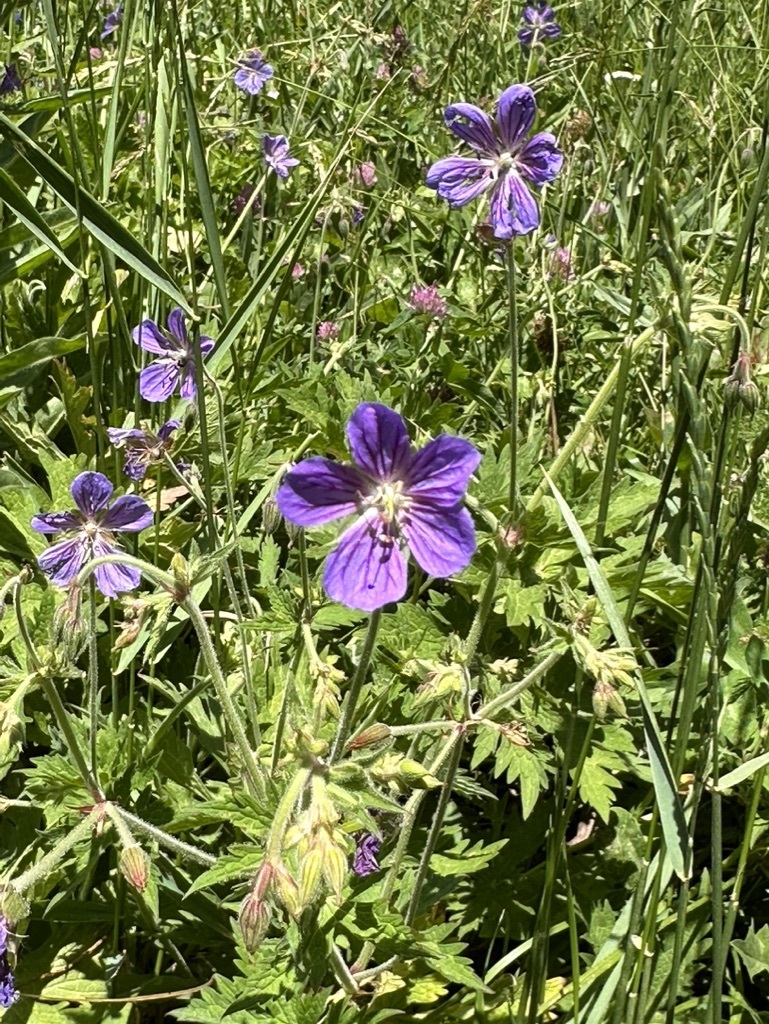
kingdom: Plantae
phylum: Tracheophyta
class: Magnoliopsida
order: Geraniales
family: Geraniaceae
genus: Geranium
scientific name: Geranium pratense
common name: Meadow crane's-bill
